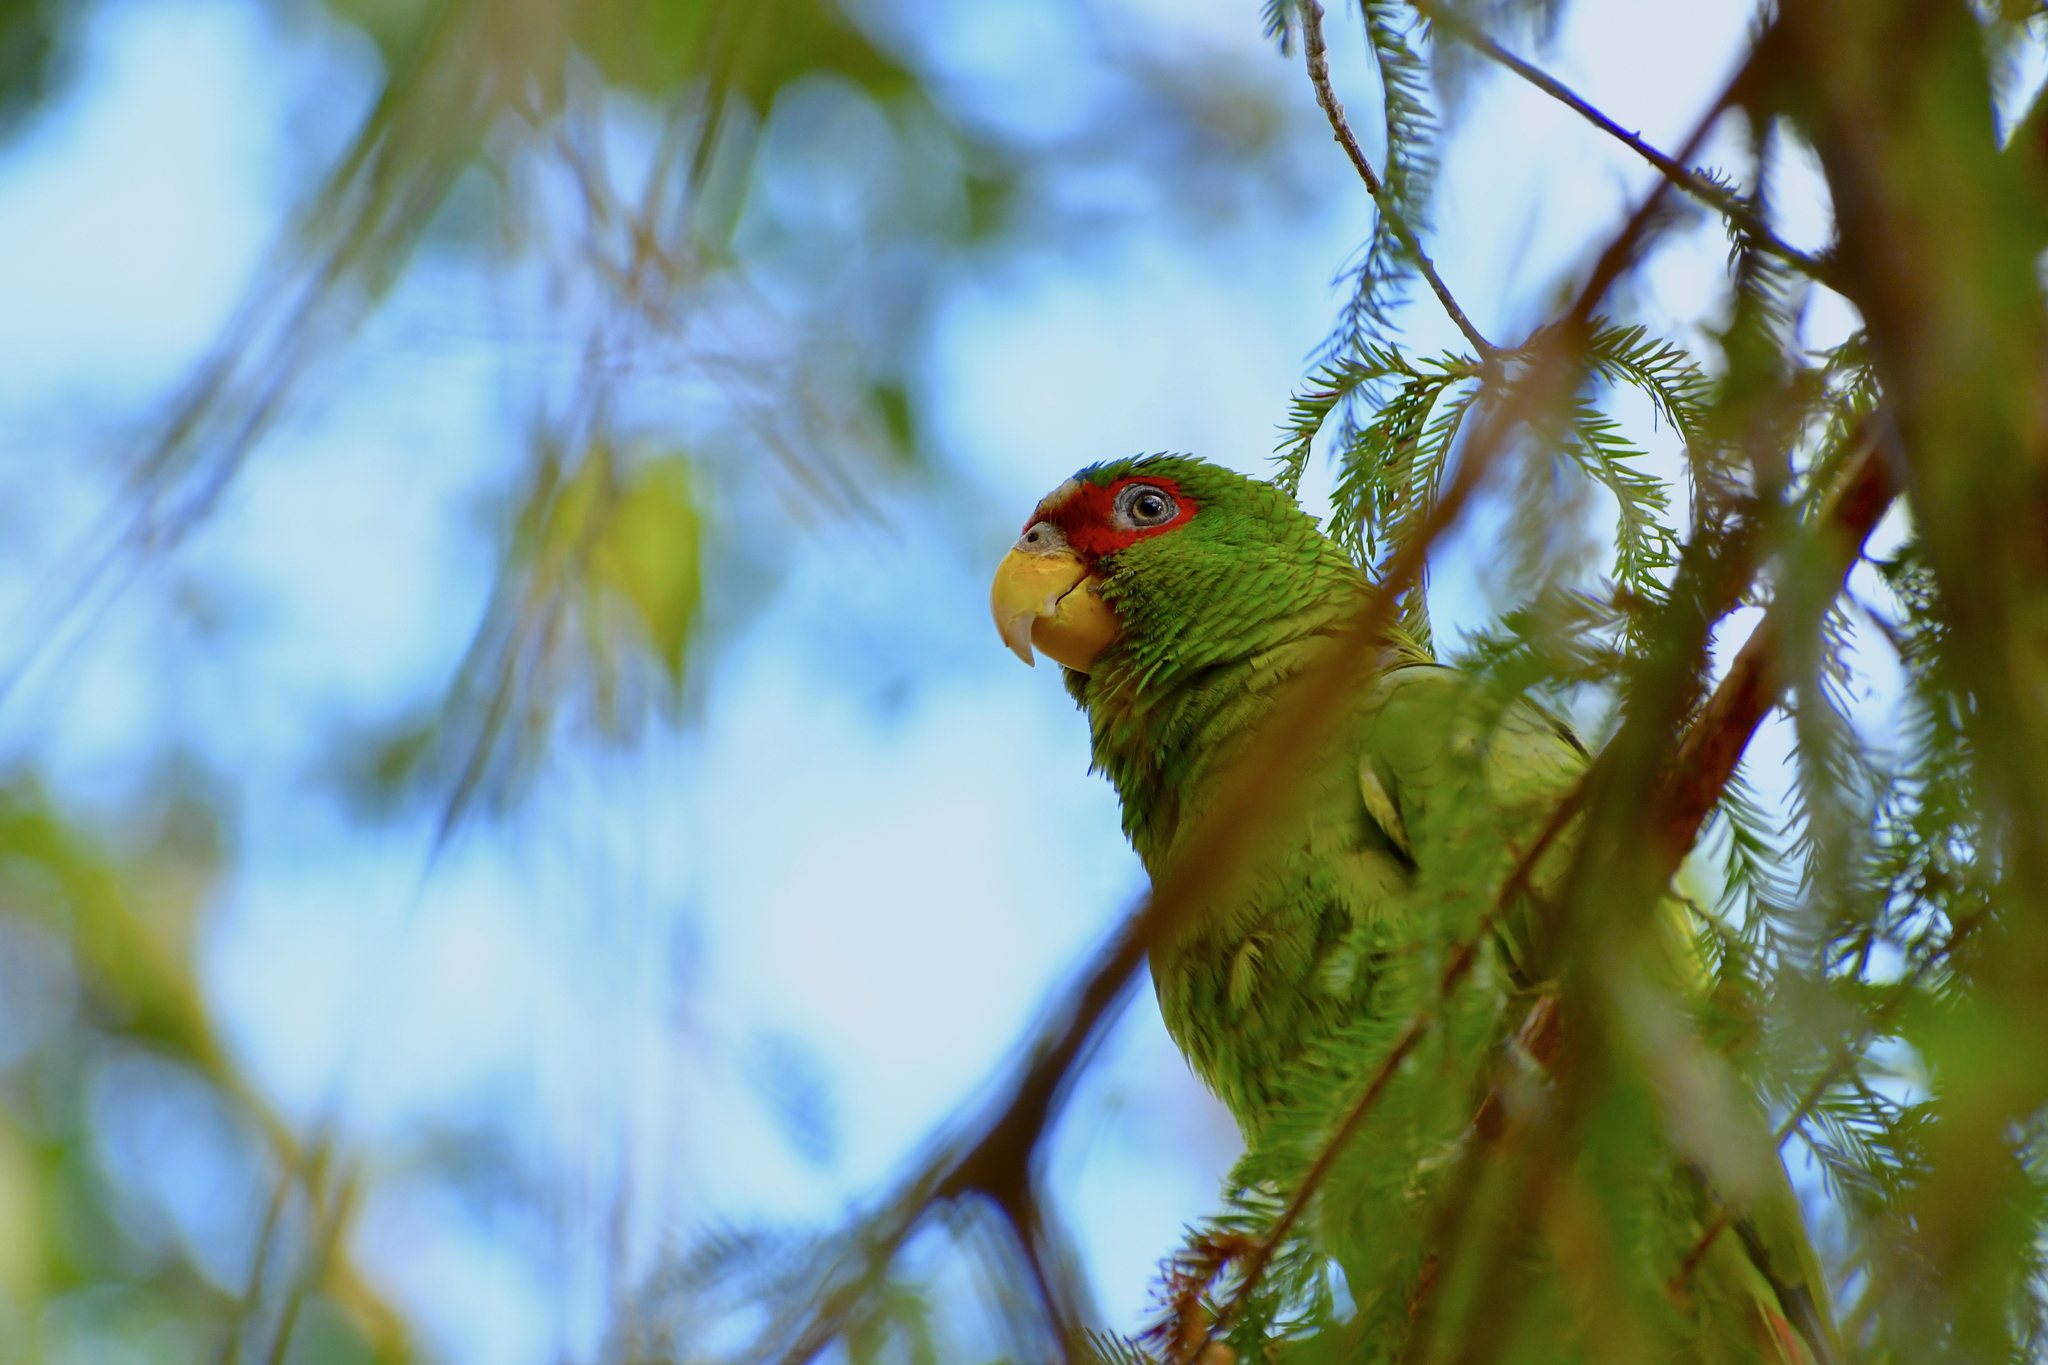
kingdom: Animalia
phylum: Chordata
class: Aves
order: Psittaciformes
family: Psittacidae
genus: Amazona
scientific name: Amazona albifrons
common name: White-fronted amazon
